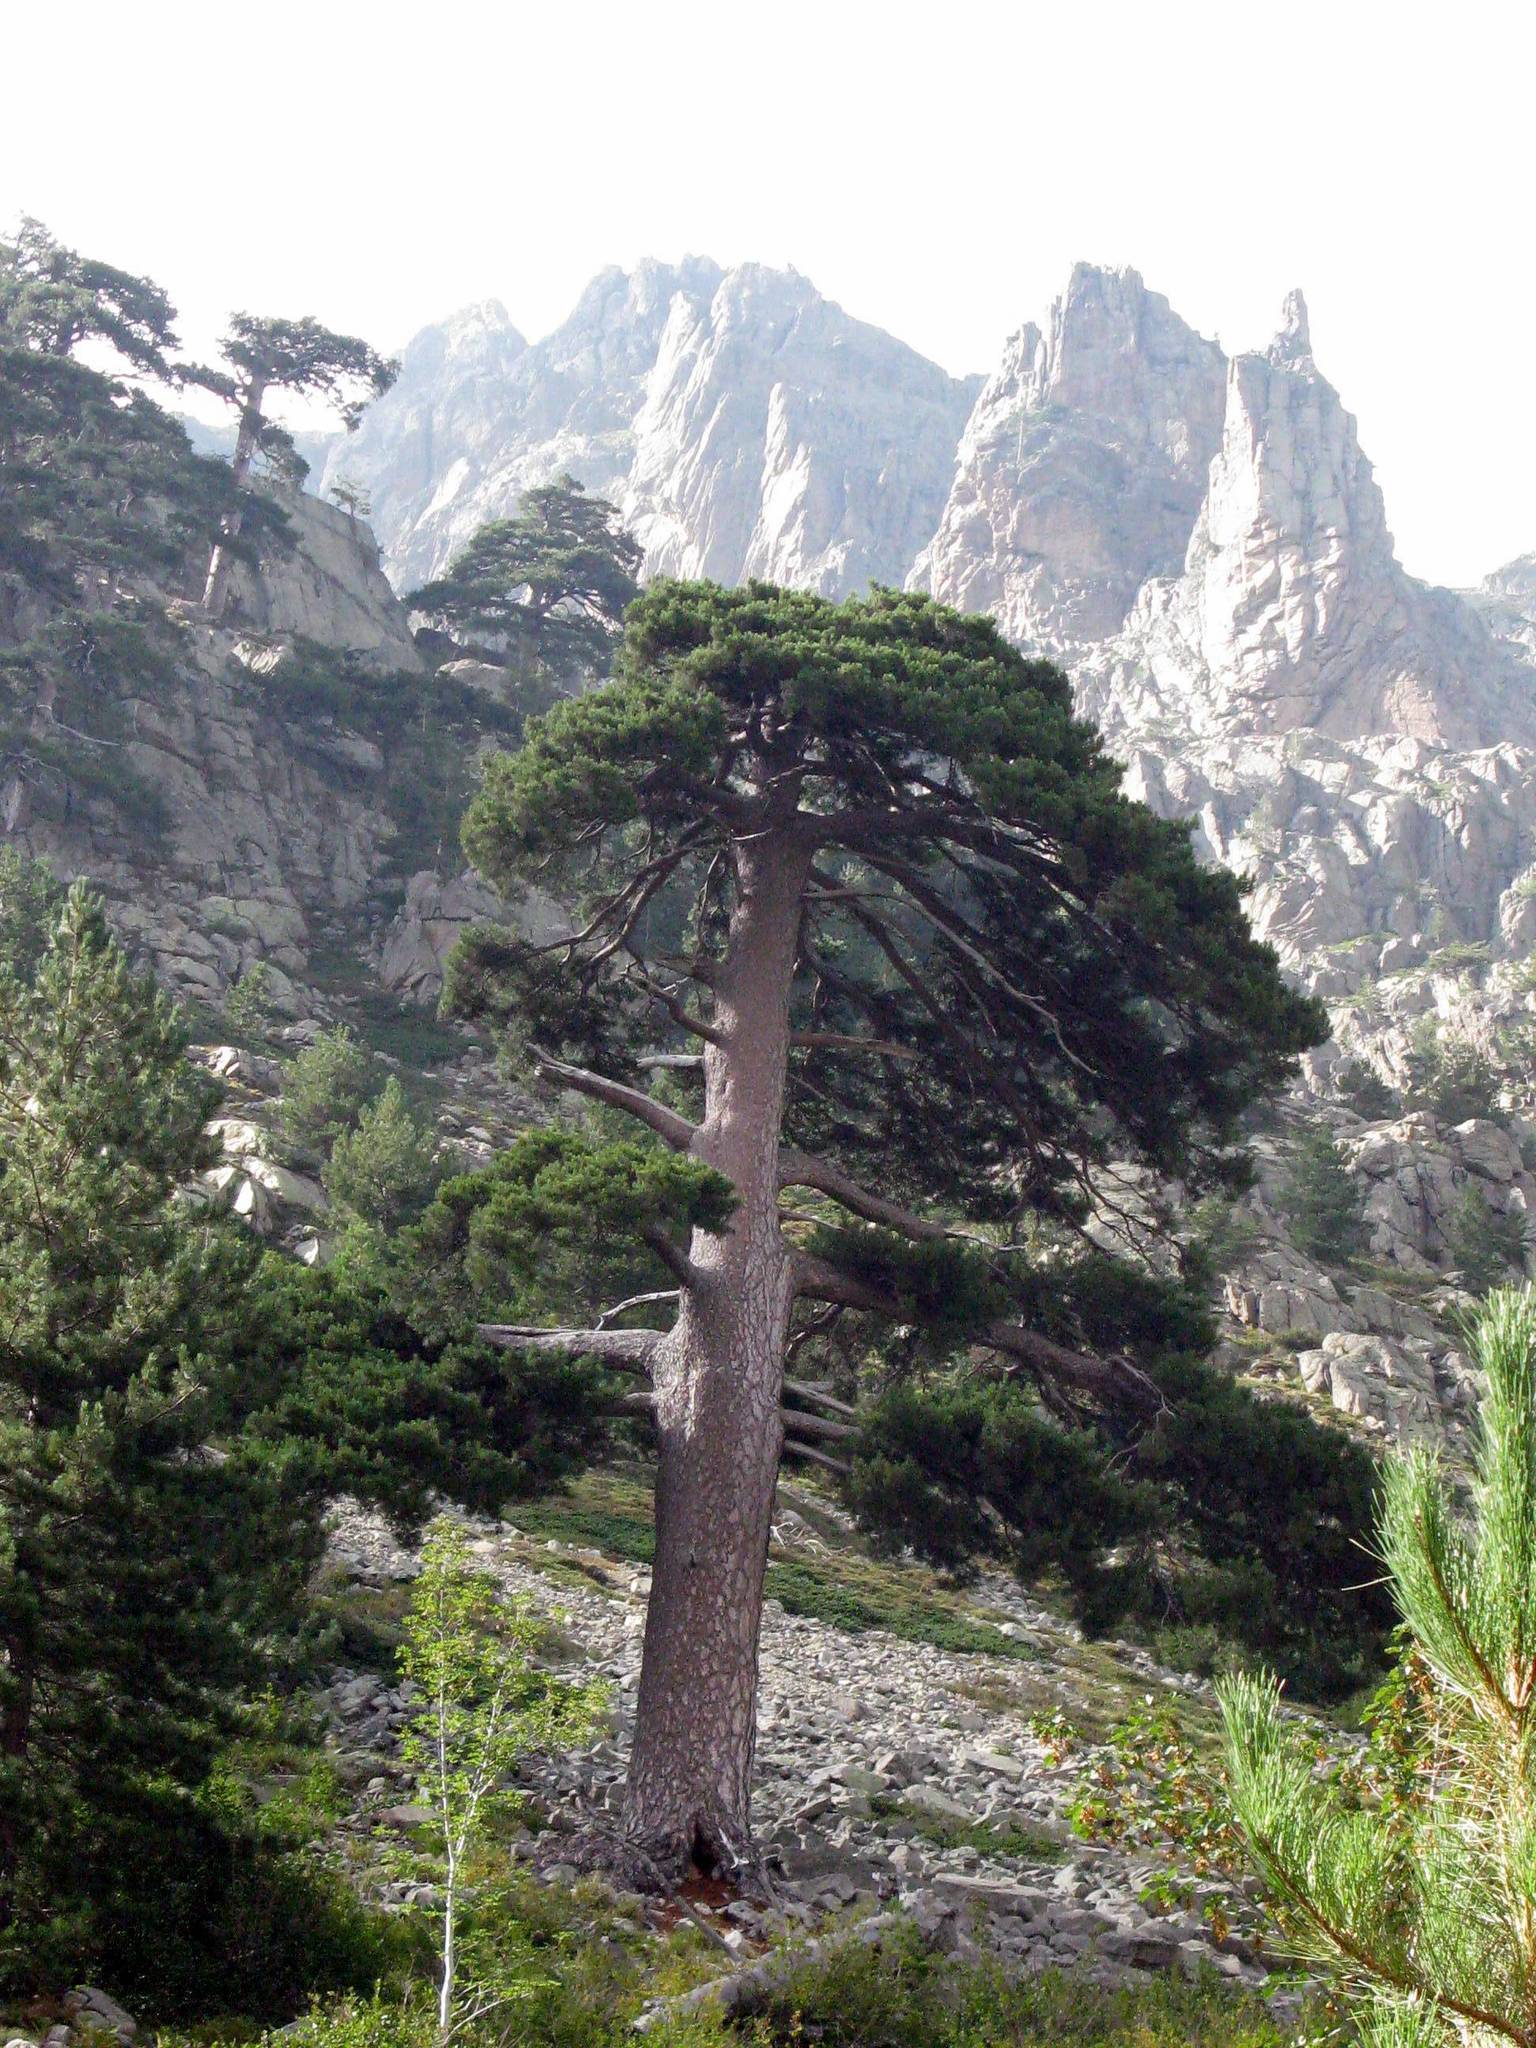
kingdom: Plantae
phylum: Tracheophyta
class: Pinopsida
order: Pinales
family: Pinaceae
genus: Pinus
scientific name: Pinus nigra
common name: Austrian pine
